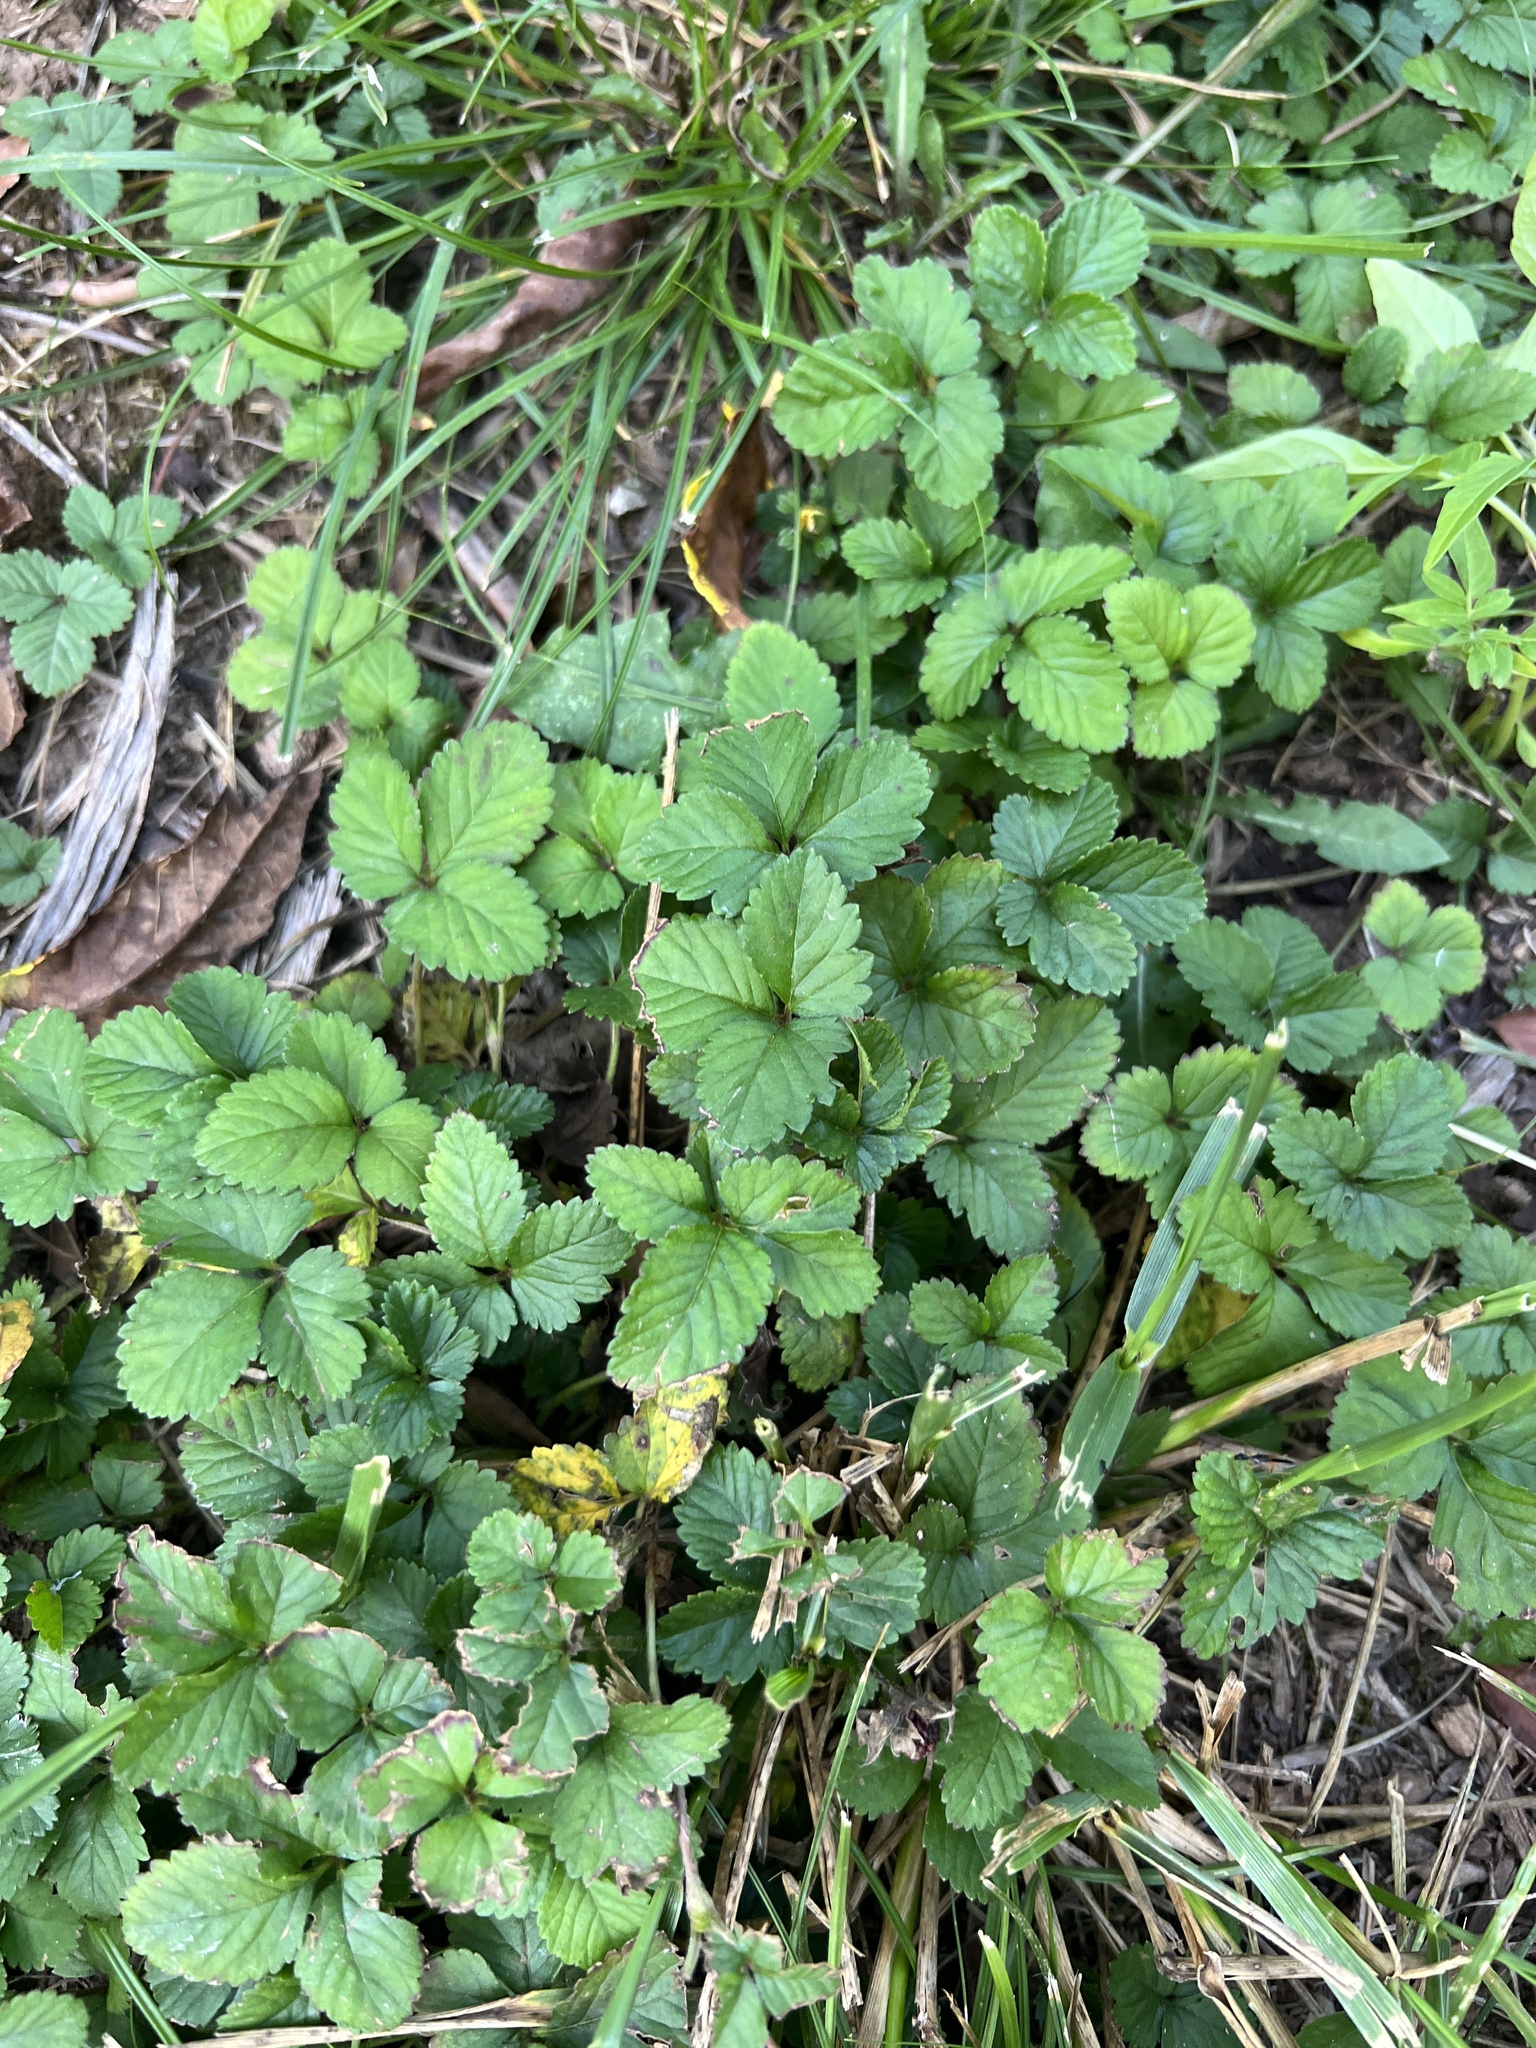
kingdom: Plantae
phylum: Tracheophyta
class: Magnoliopsida
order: Rosales
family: Rosaceae
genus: Potentilla
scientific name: Potentilla indica
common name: Yellow-flowered strawberry
